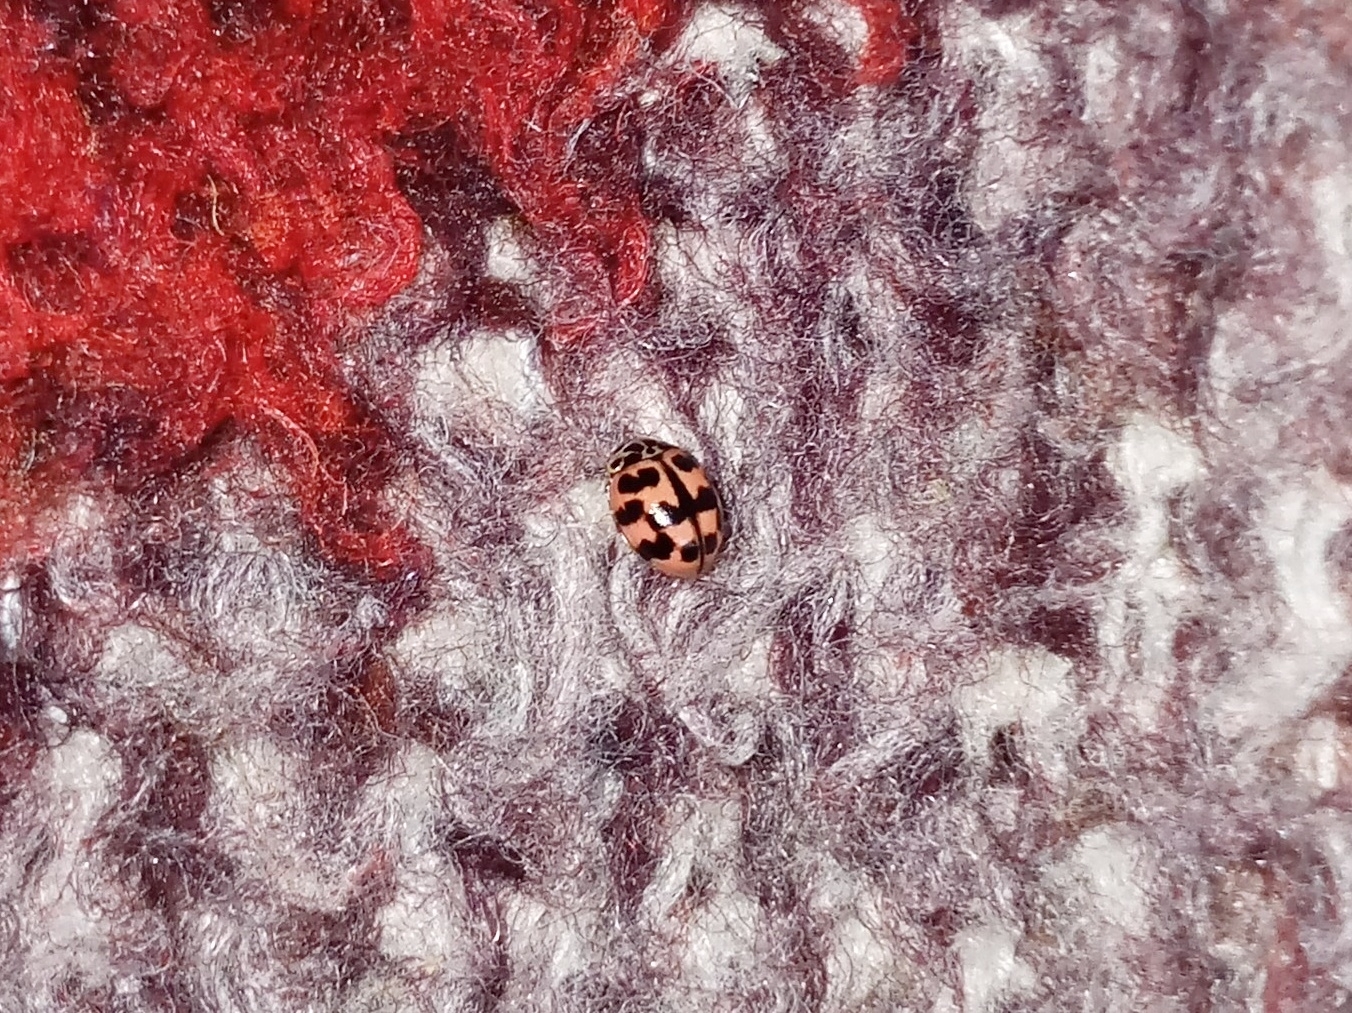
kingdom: Animalia
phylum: Arthropoda
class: Insecta
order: Coleoptera
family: Coccinellidae
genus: Oenopia
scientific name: Oenopia conglobata
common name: Ladybird beetle
